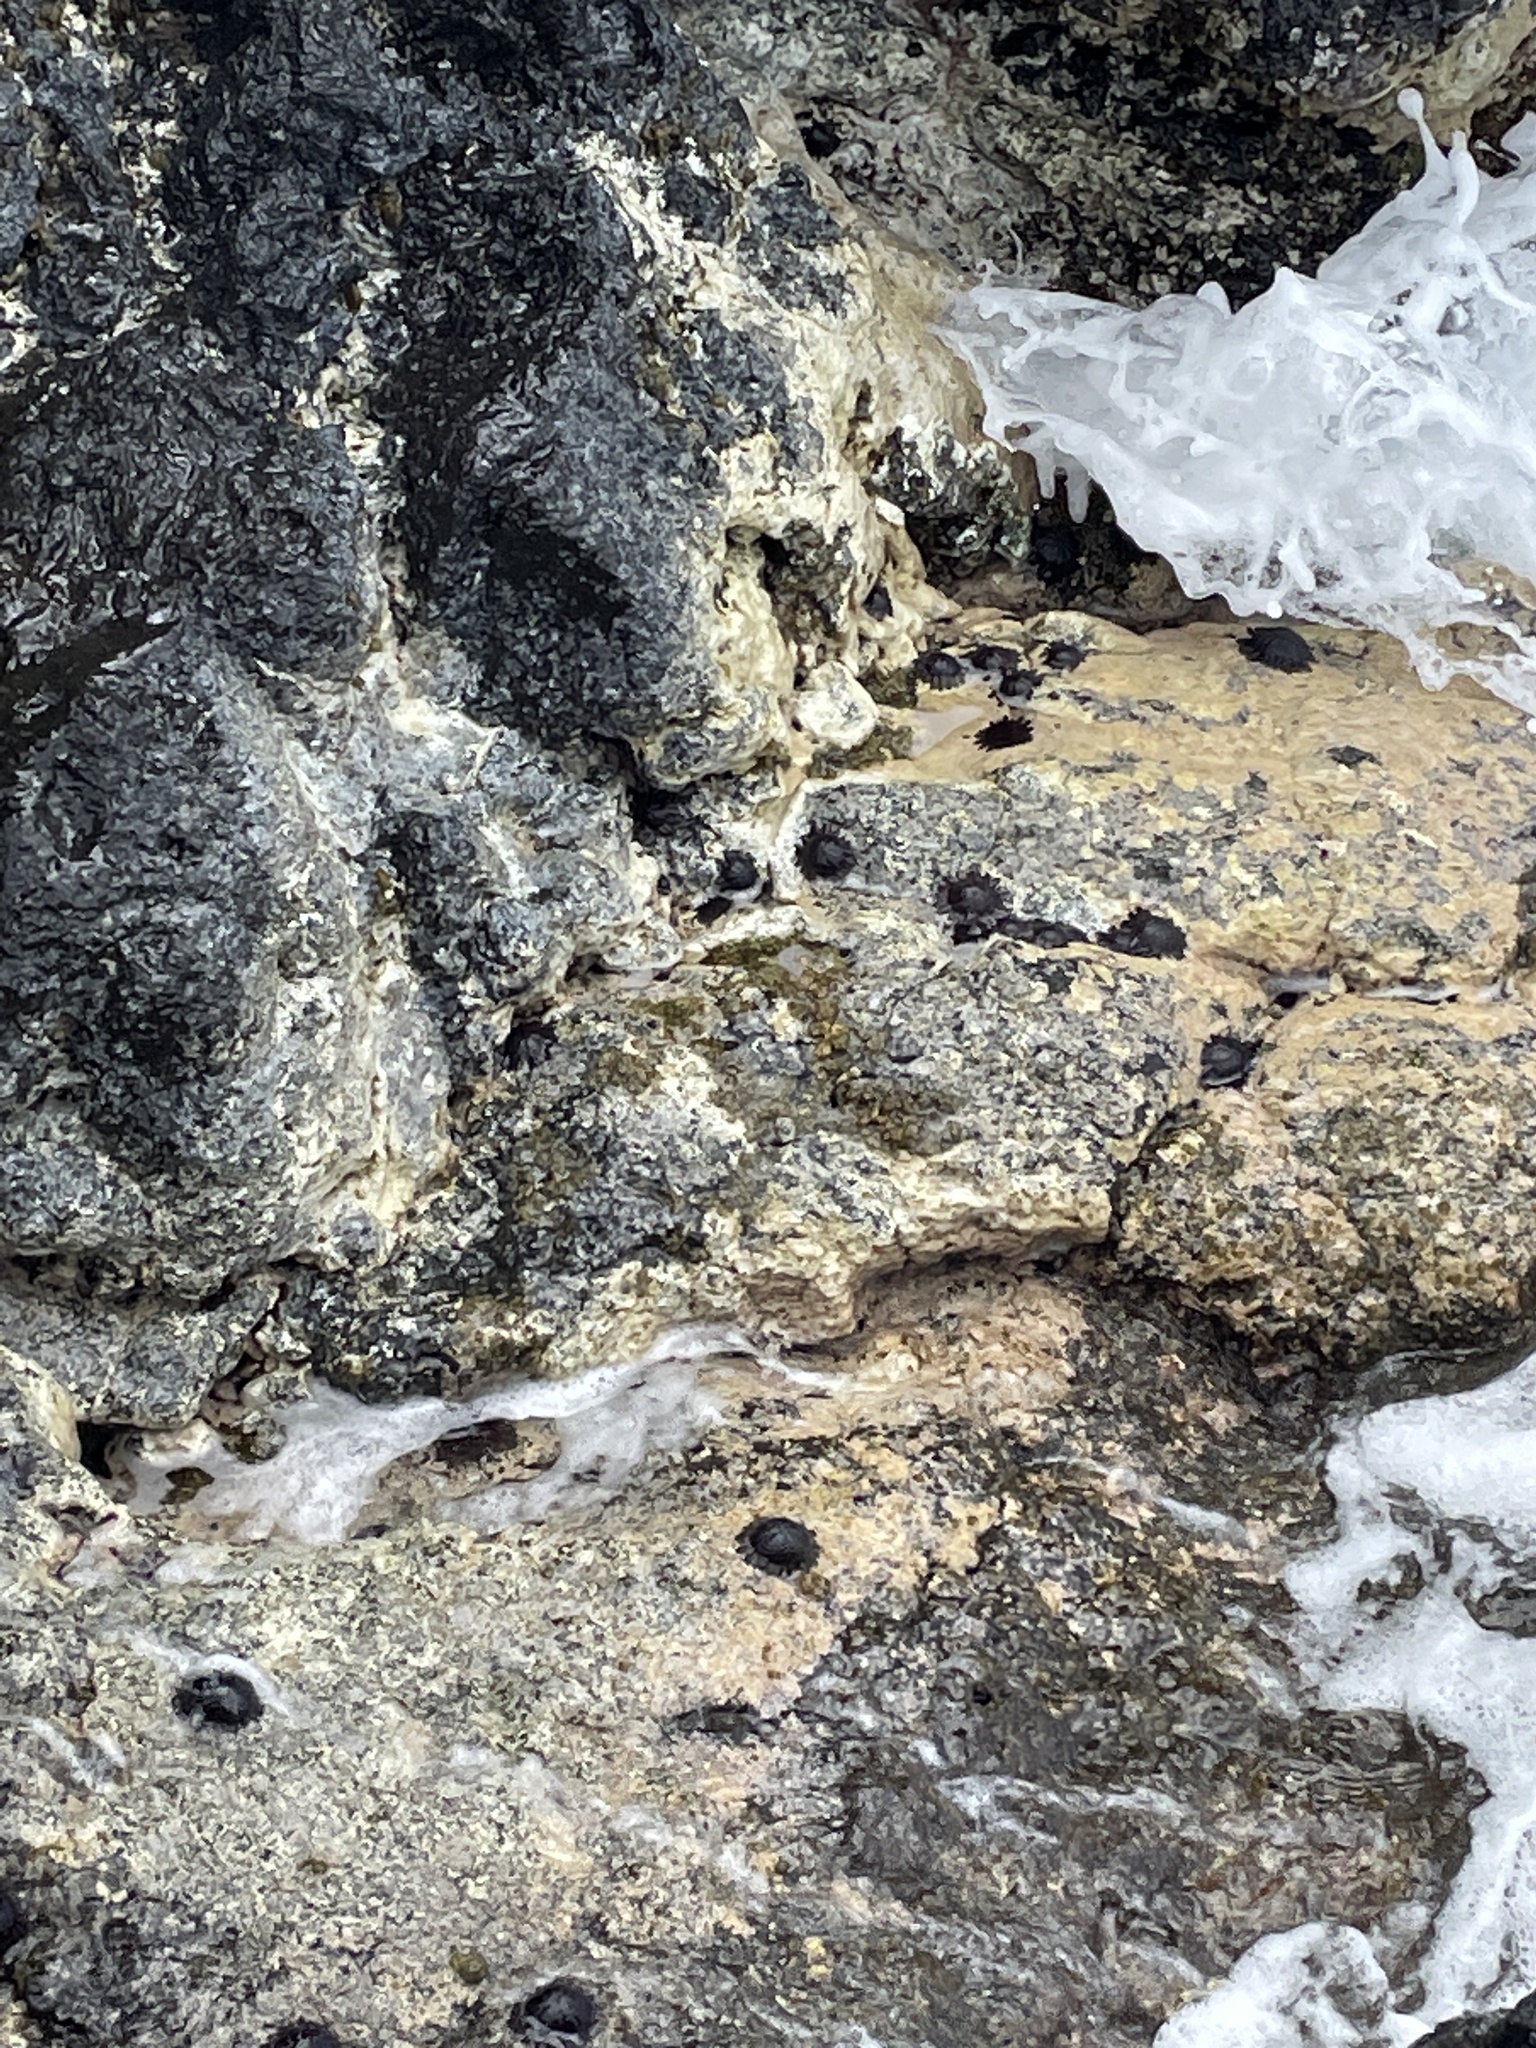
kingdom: Animalia
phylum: Echinodermata
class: Echinoidea
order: Camarodonta
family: Echinometridae
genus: Colobocentrotus
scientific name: Colobocentrotus atratus
